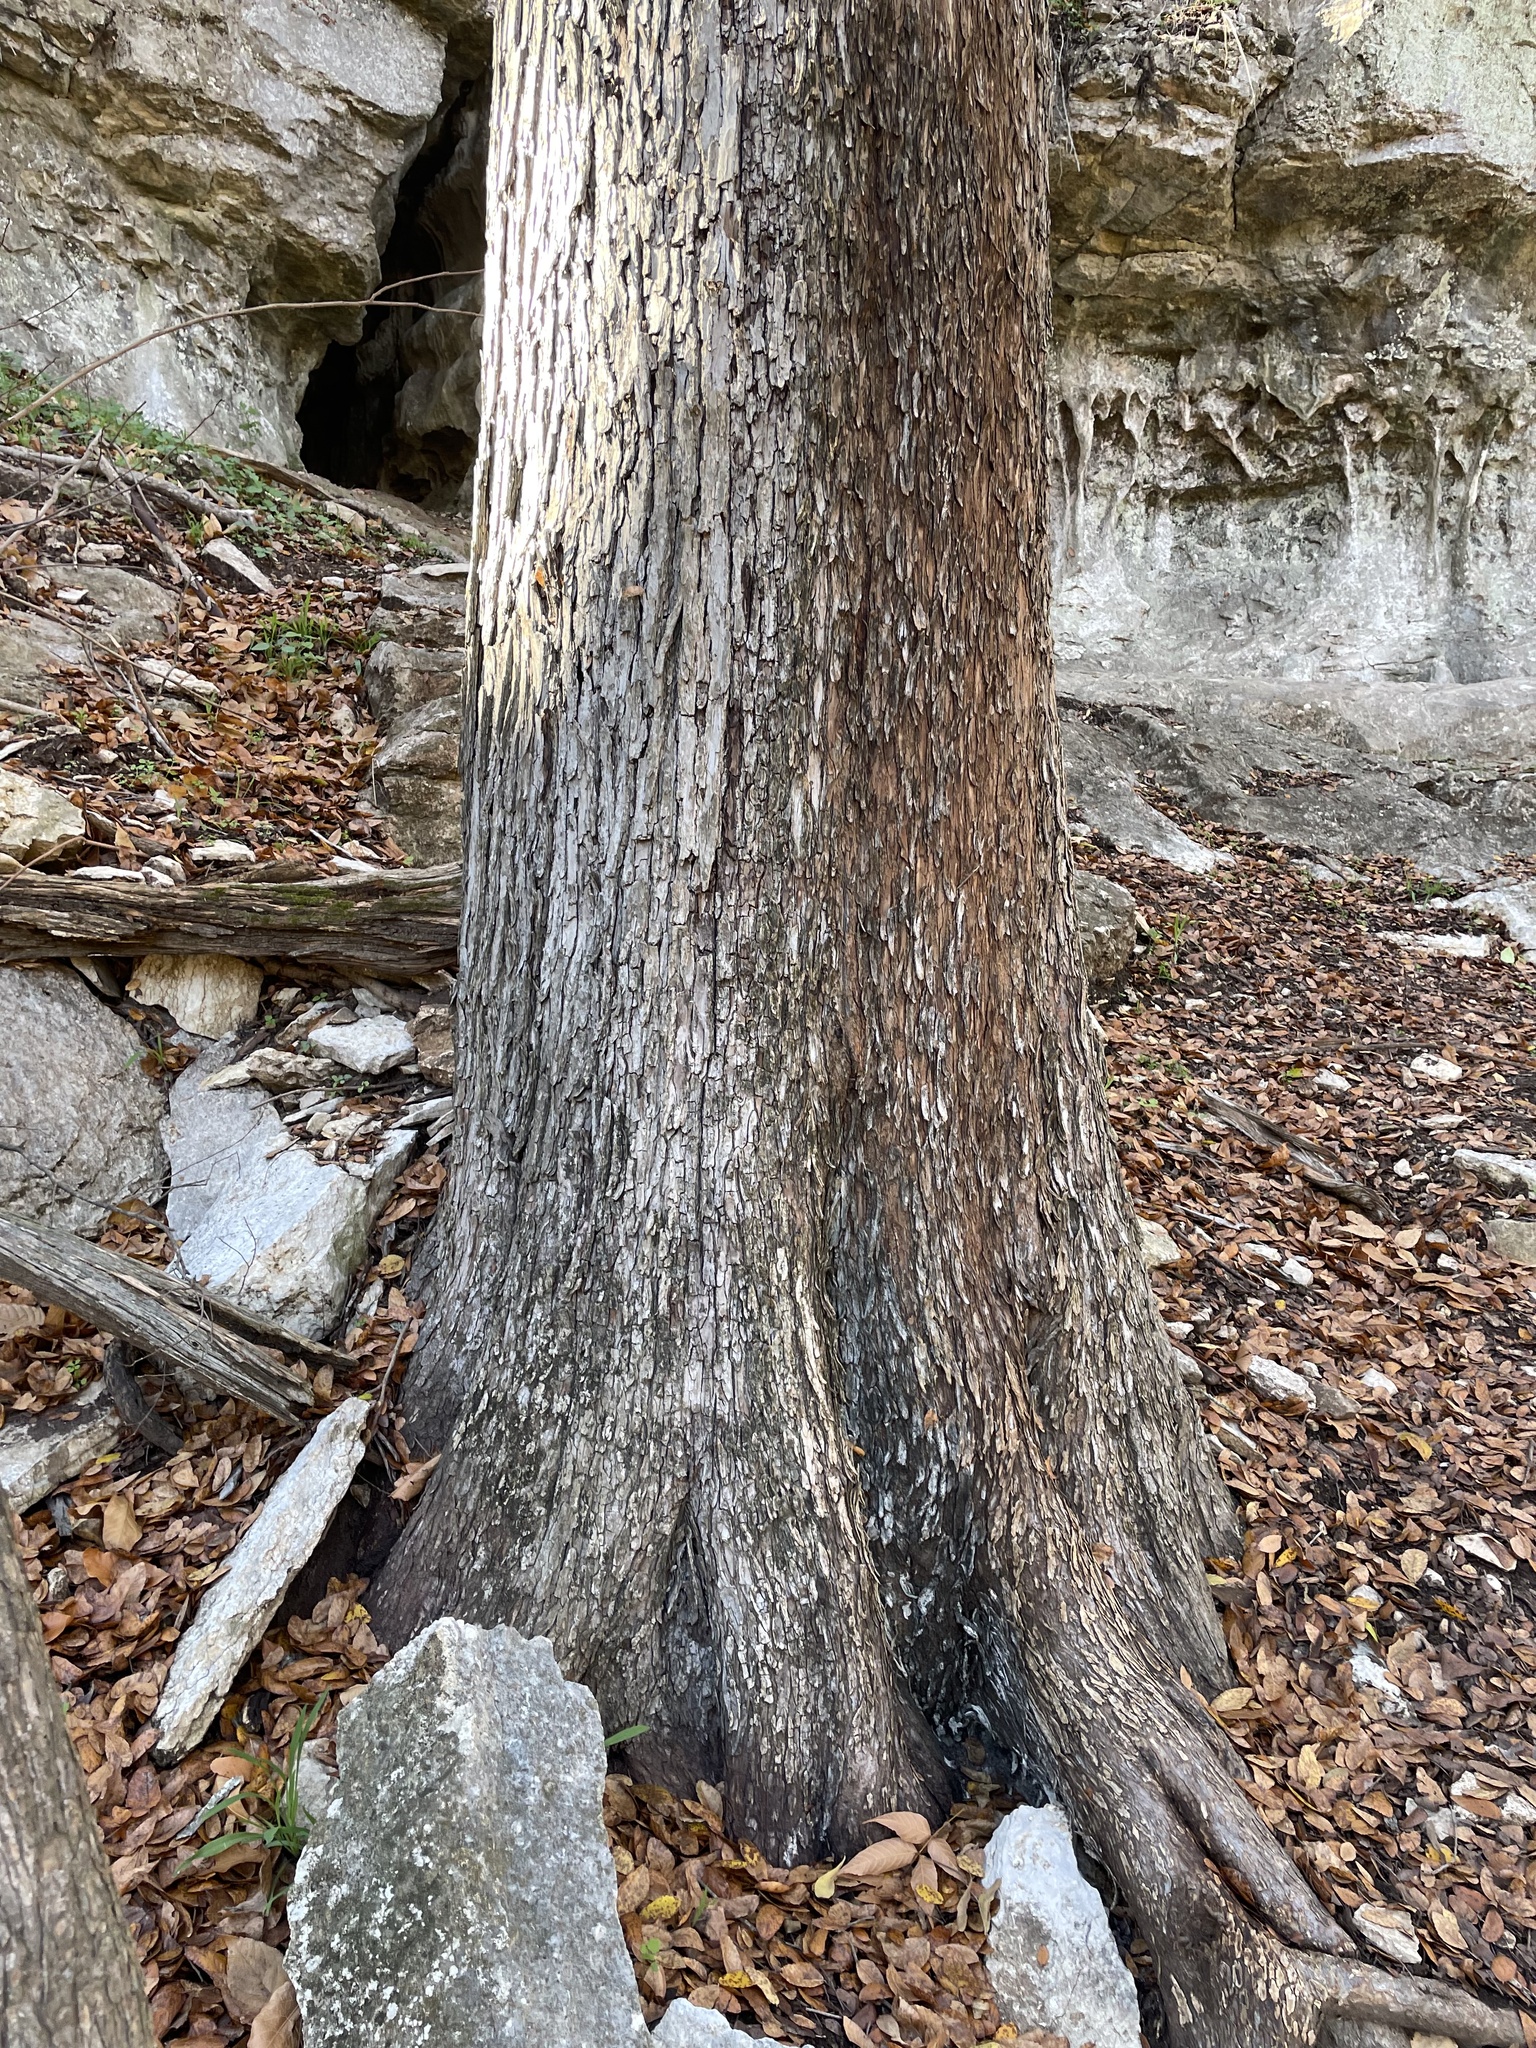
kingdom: Plantae
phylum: Tracheophyta
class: Magnoliopsida
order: Rosales
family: Ulmaceae
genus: Ulmus
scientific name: Ulmus crassifolia
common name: Basket elm
